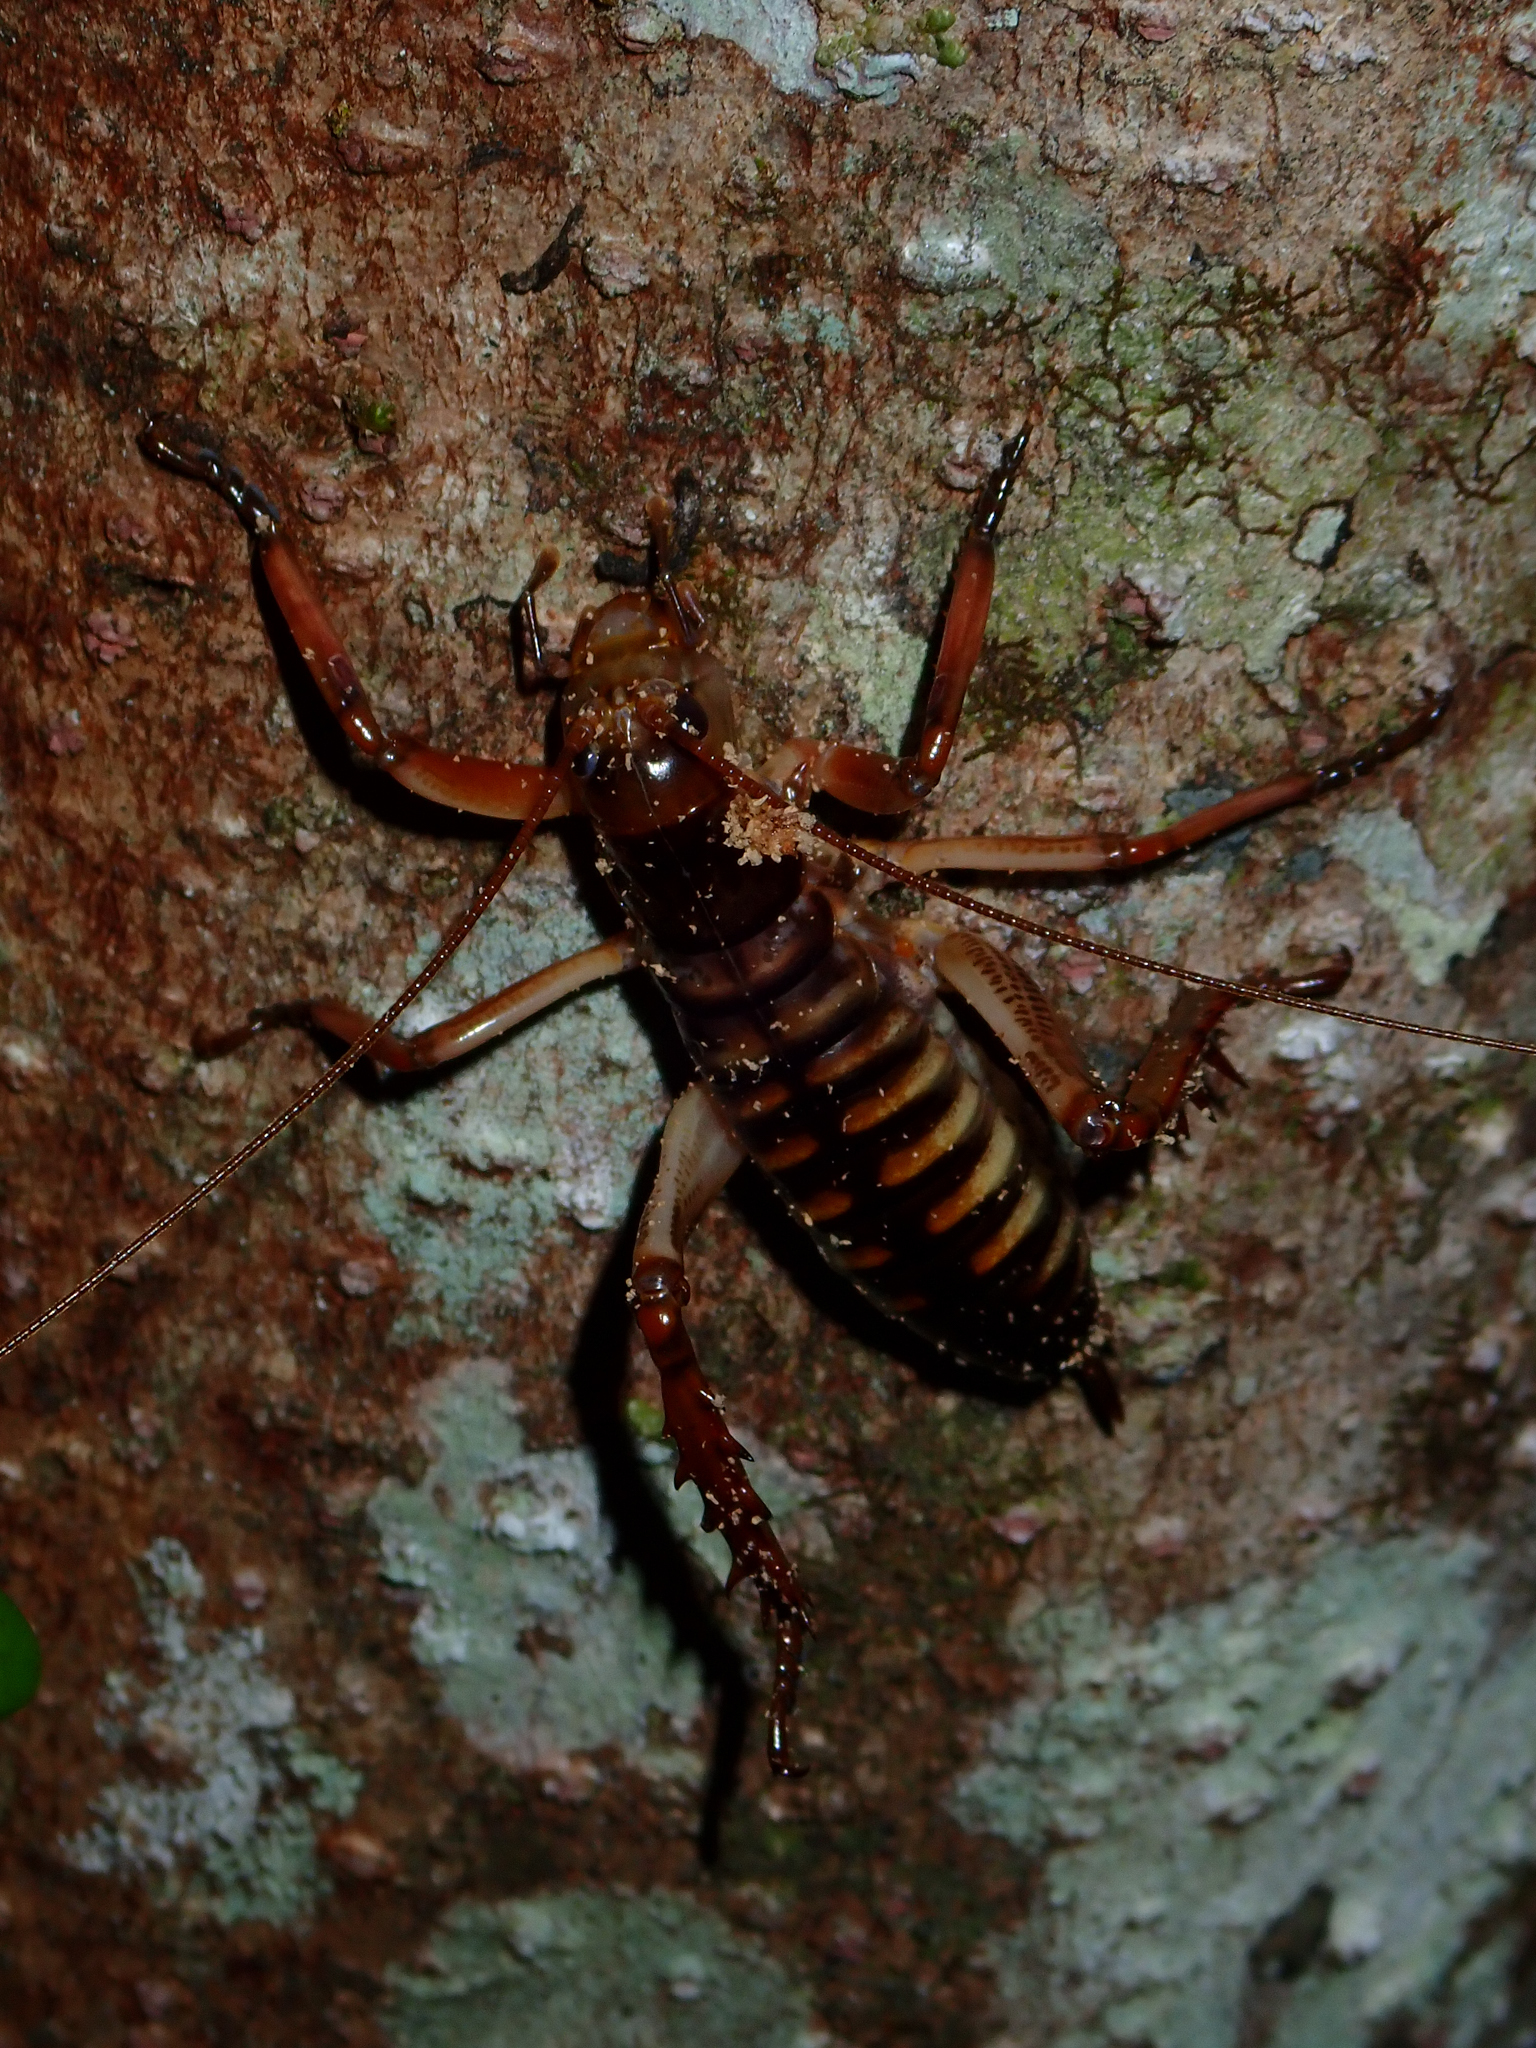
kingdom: Animalia
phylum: Arthropoda
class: Insecta
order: Orthoptera
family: Anostostomatidae
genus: Hemideina
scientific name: Hemideina crassidens
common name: Wellington tree weta
